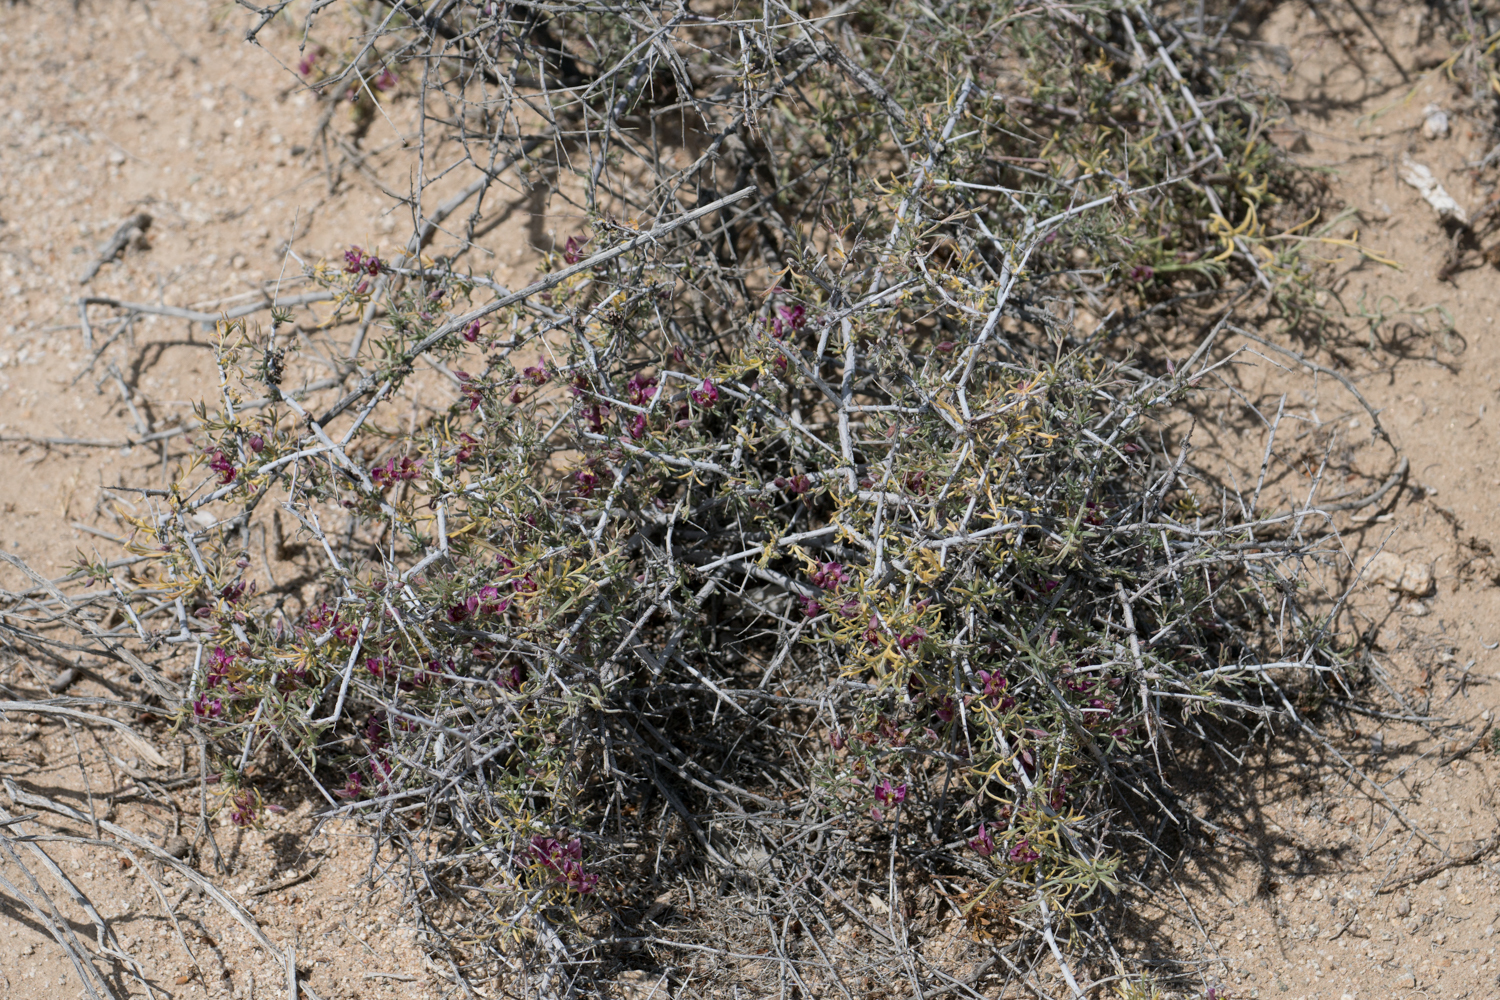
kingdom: Plantae
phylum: Tracheophyta
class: Magnoliopsida
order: Zygophyllales
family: Krameriaceae
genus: Krameria
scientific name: Krameria erecta
